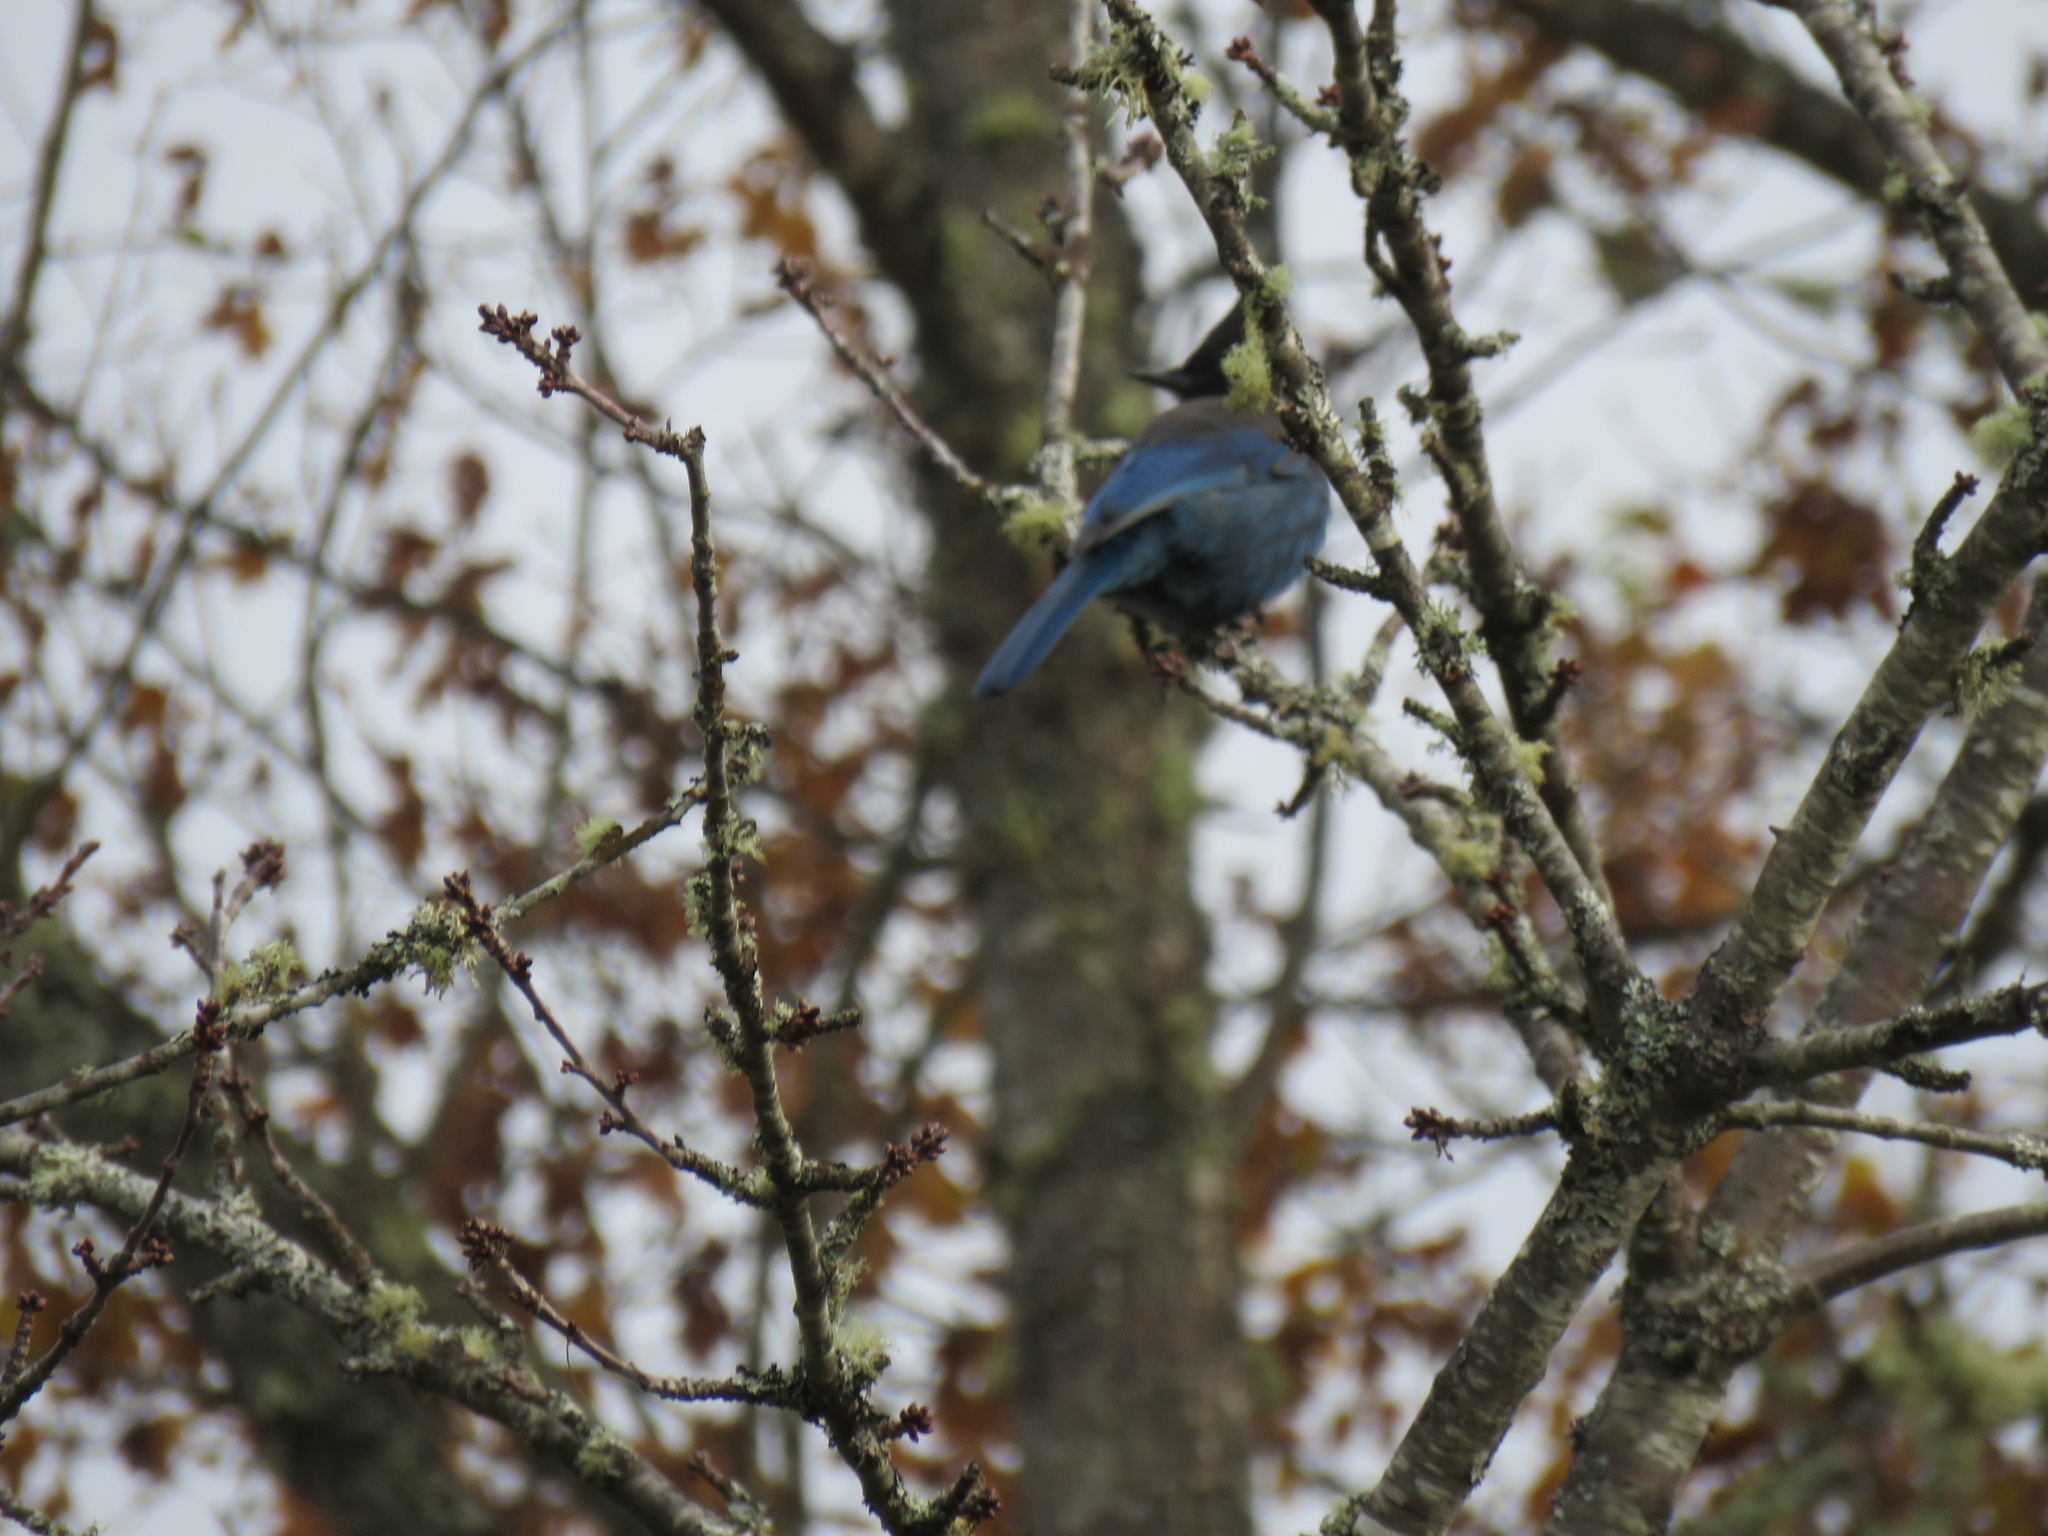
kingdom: Animalia
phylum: Chordata
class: Aves
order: Passeriformes
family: Corvidae
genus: Cyanocitta
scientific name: Cyanocitta stelleri
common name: Steller's jay
